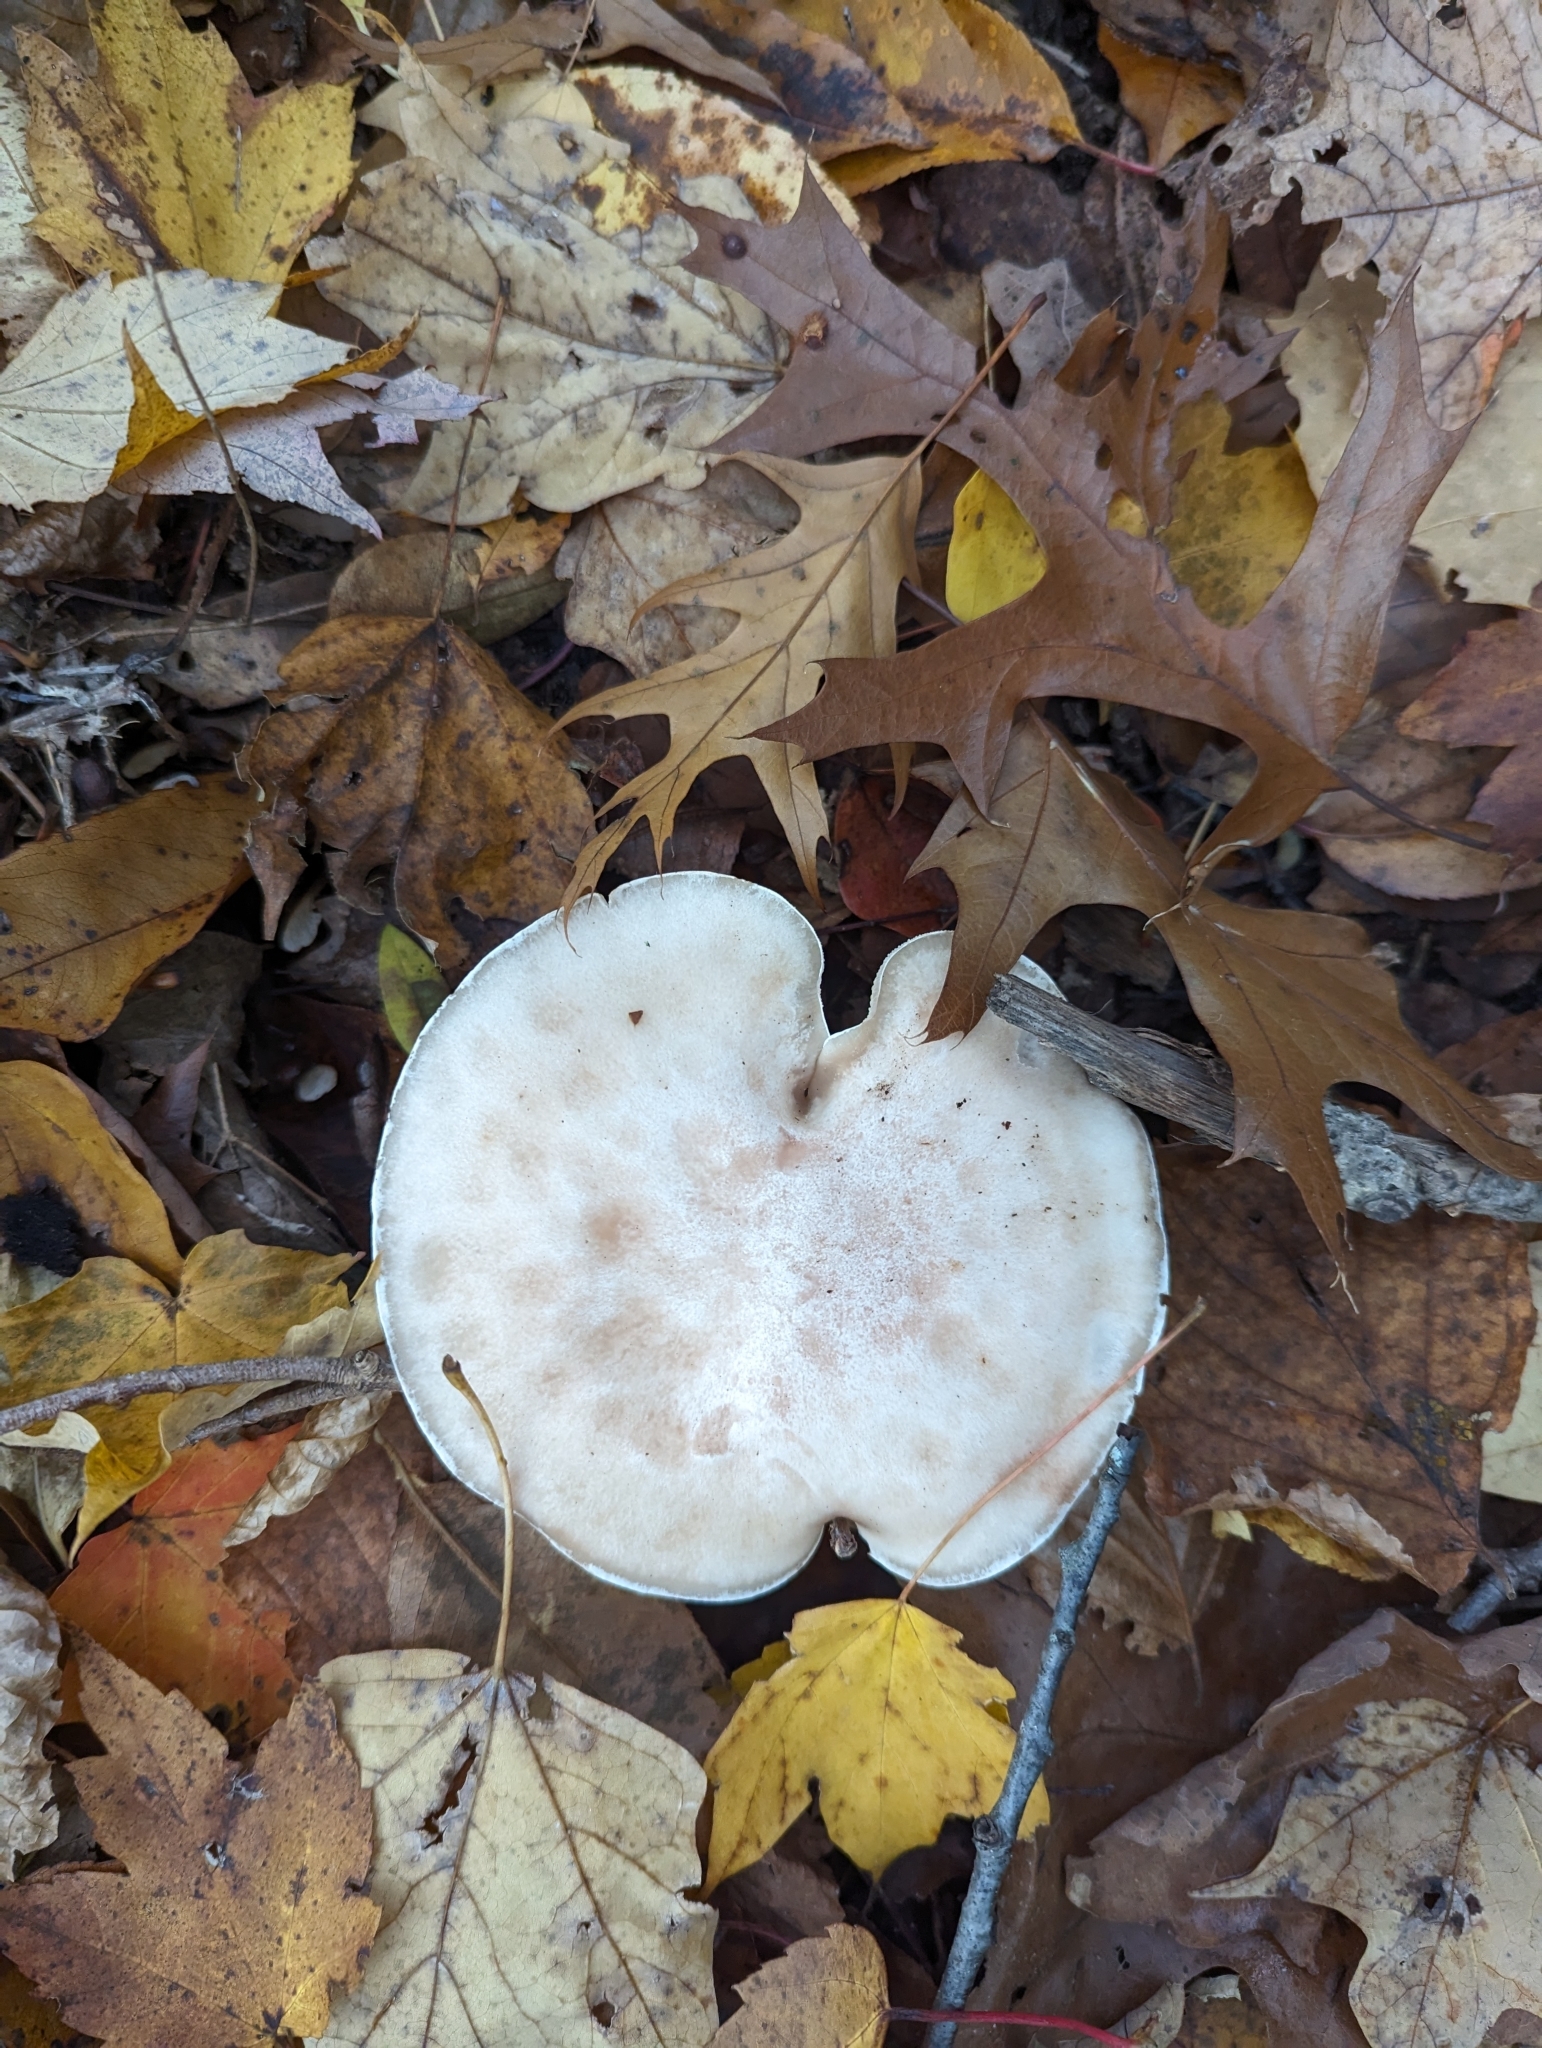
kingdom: Fungi
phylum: Basidiomycota
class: Agaricomycetes
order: Agaricales
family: Tricholomataceae
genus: Clitocybe
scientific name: Clitocybe robusta
